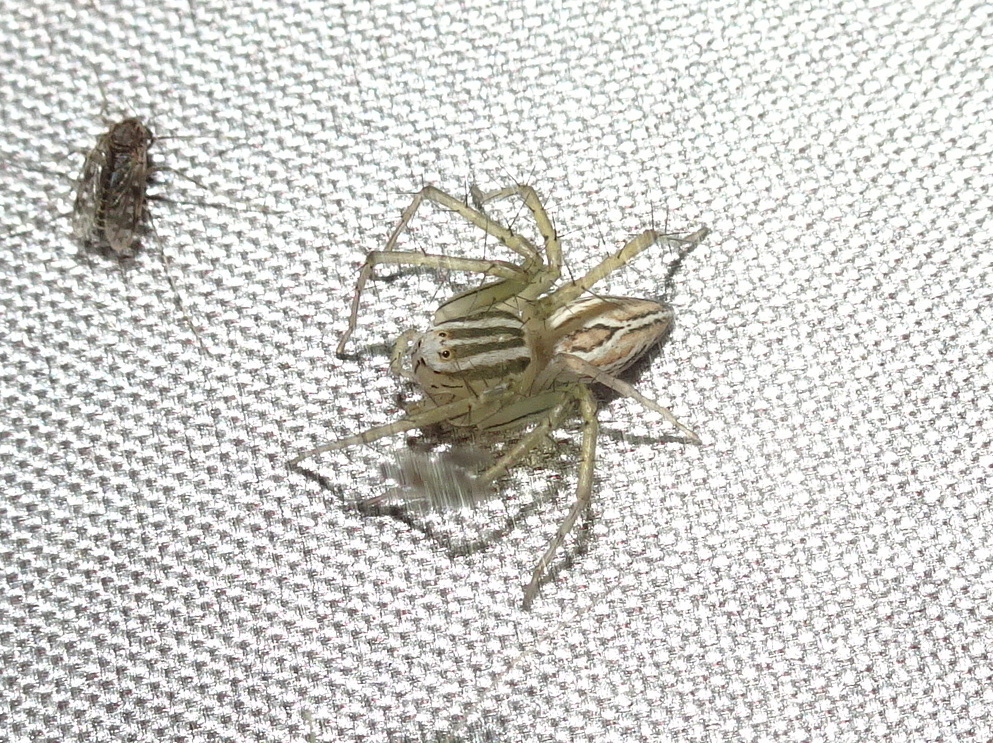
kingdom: Animalia
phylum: Arthropoda
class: Arachnida
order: Araneae
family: Oxyopidae
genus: Oxyopes
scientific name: Oxyopes salticus
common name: Lynx spiders
